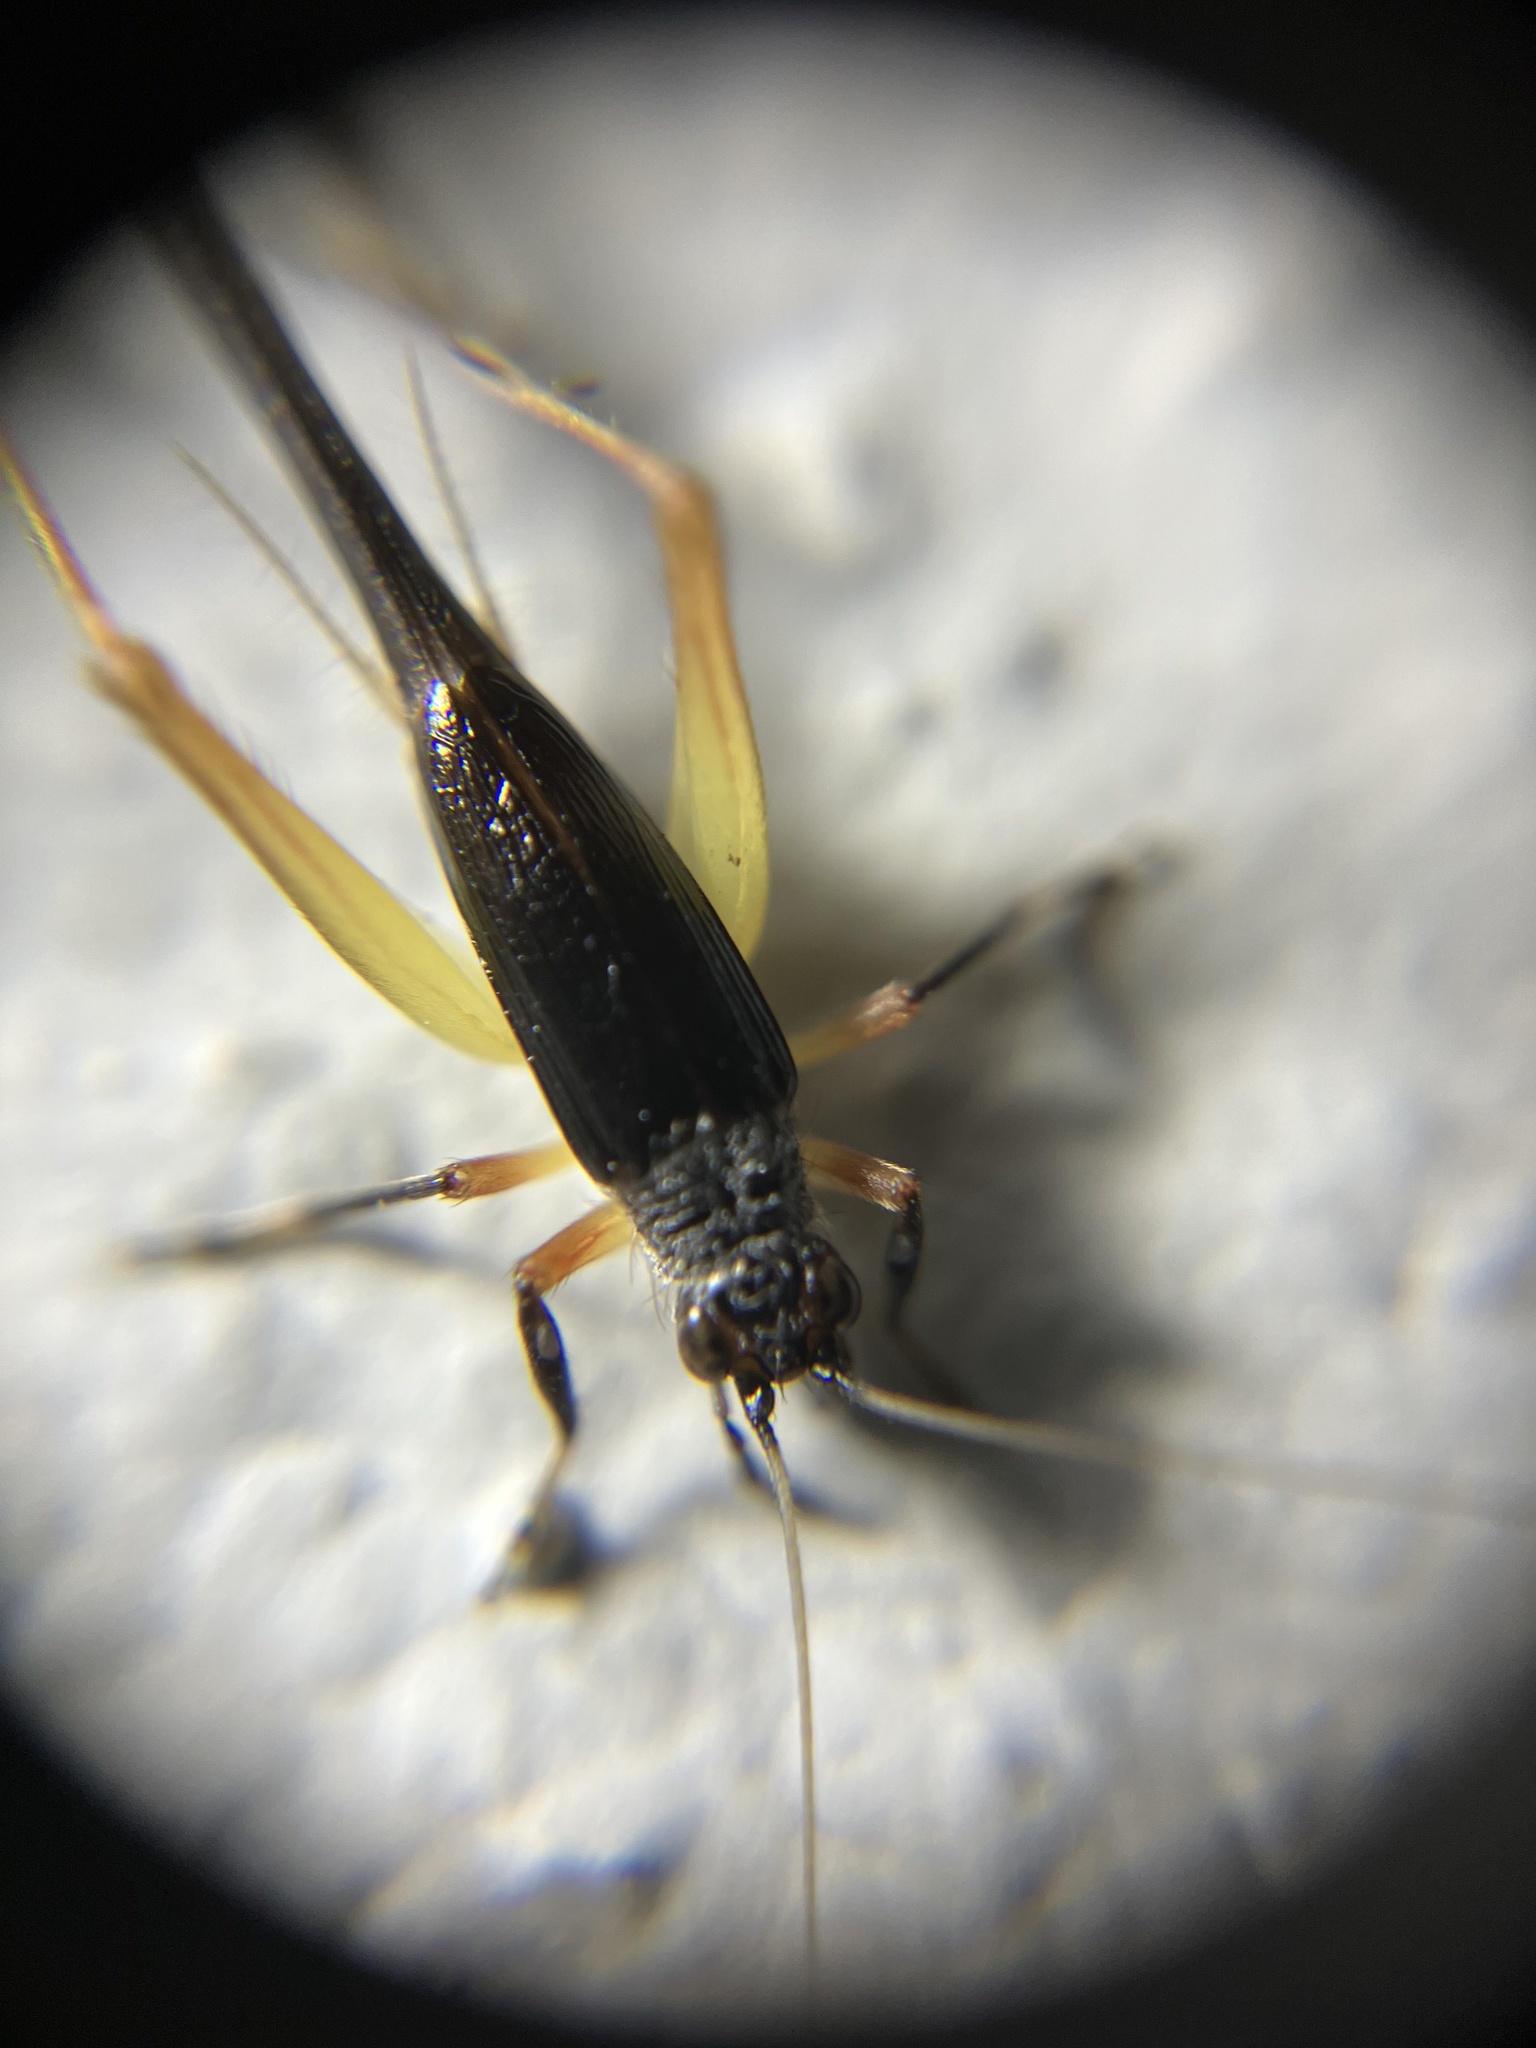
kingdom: Animalia
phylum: Arthropoda
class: Insecta
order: Orthoptera
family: Trigonidiidae
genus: Trigonidium
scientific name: Trigonidium cicindeloides
